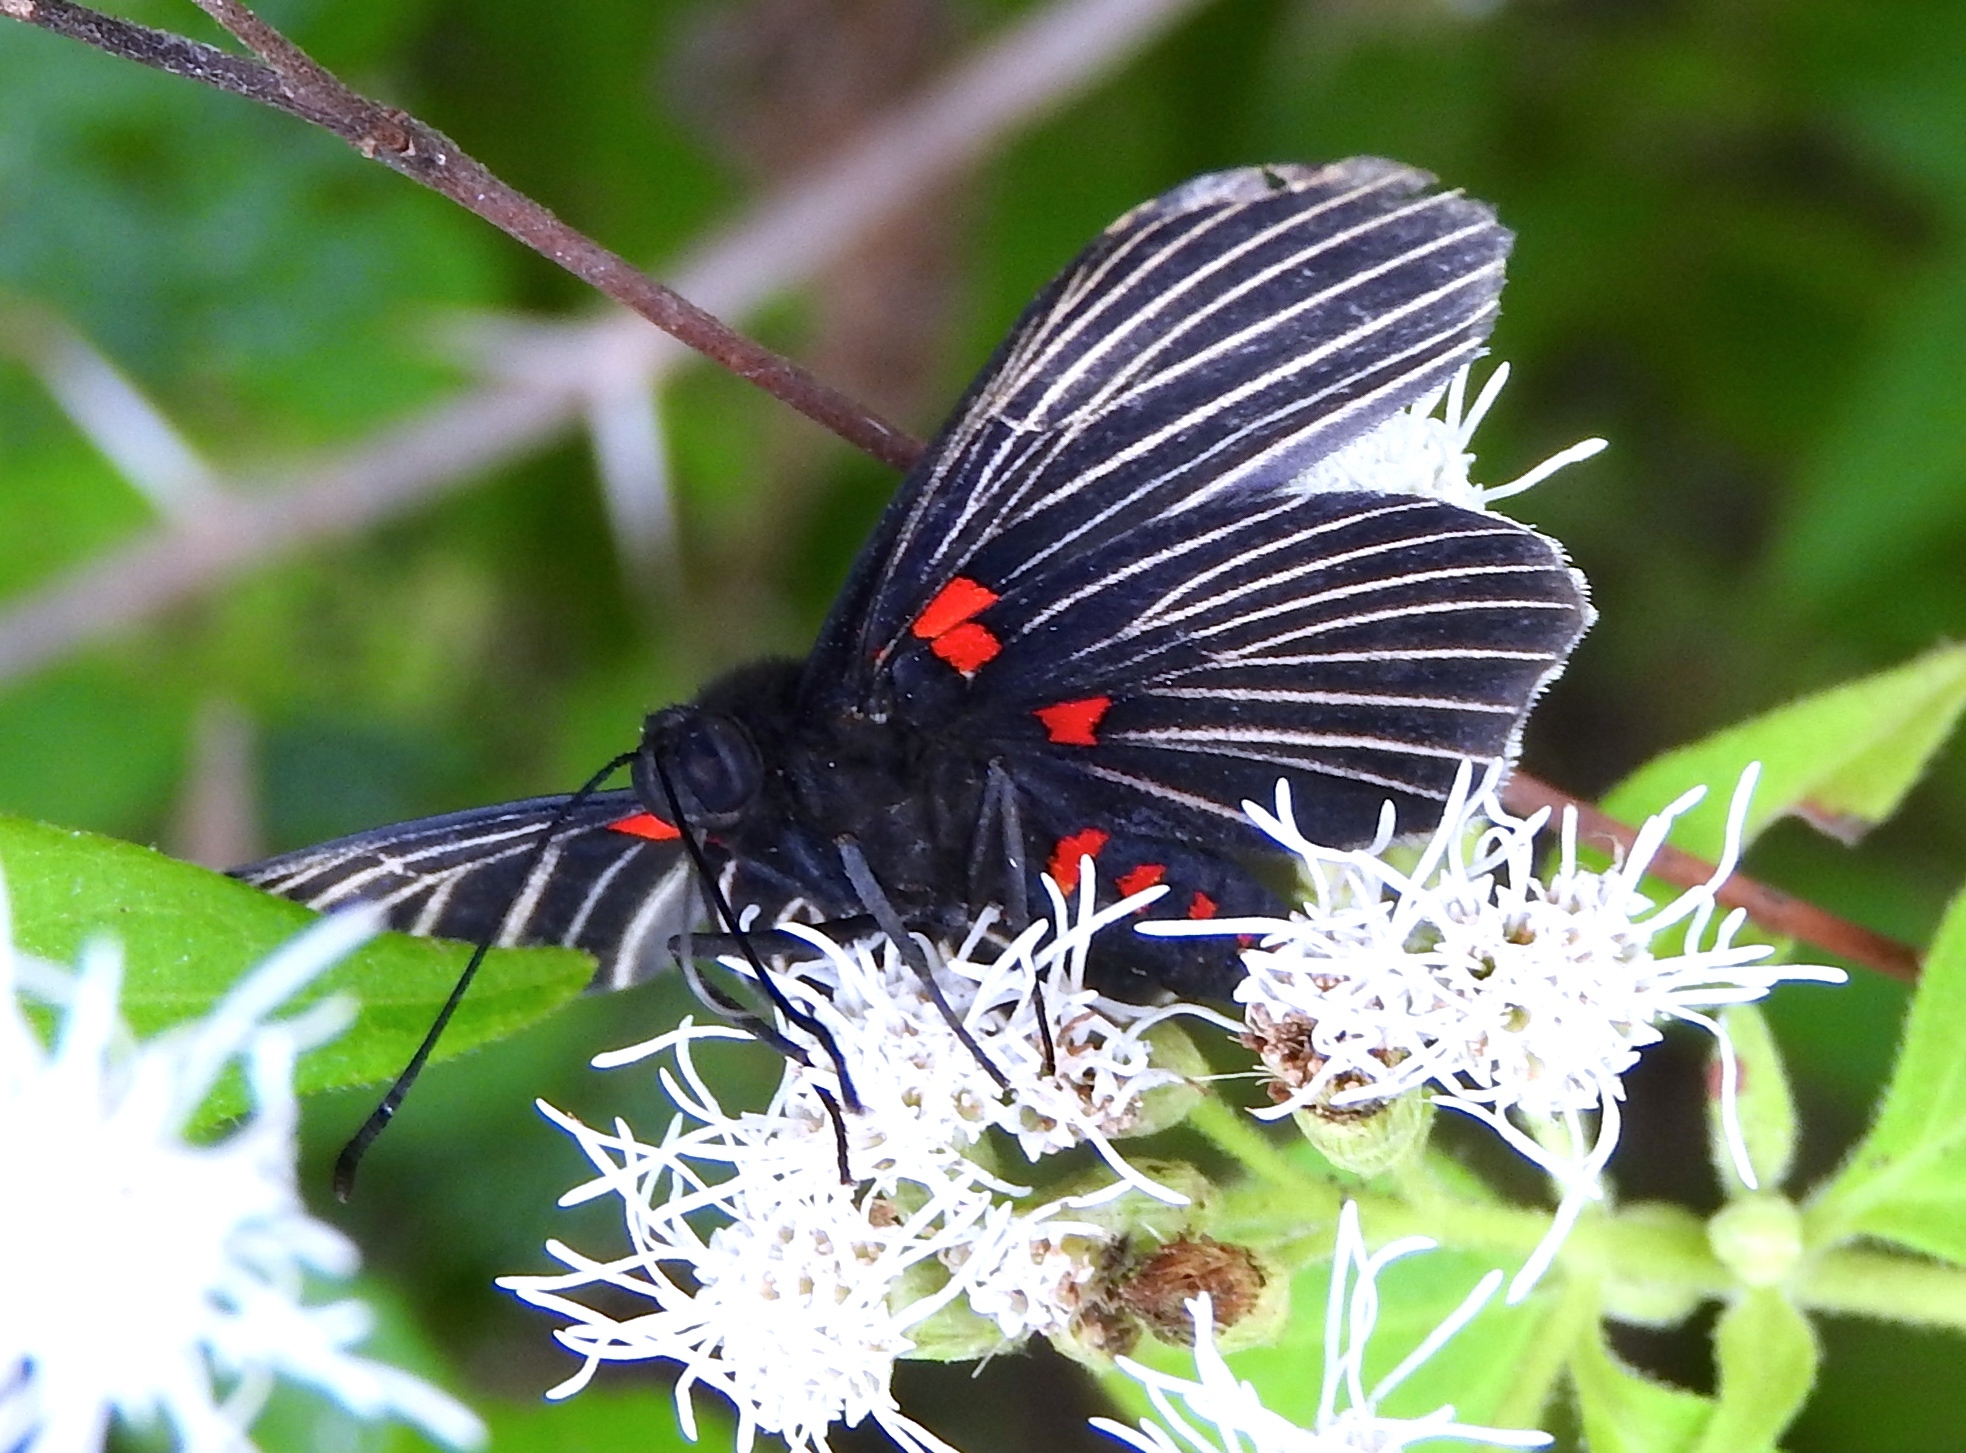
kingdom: Animalia
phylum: Arthropoda
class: Insecta
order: Lepidoptera
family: Lycaenidae
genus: Melanis
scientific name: Melanis
